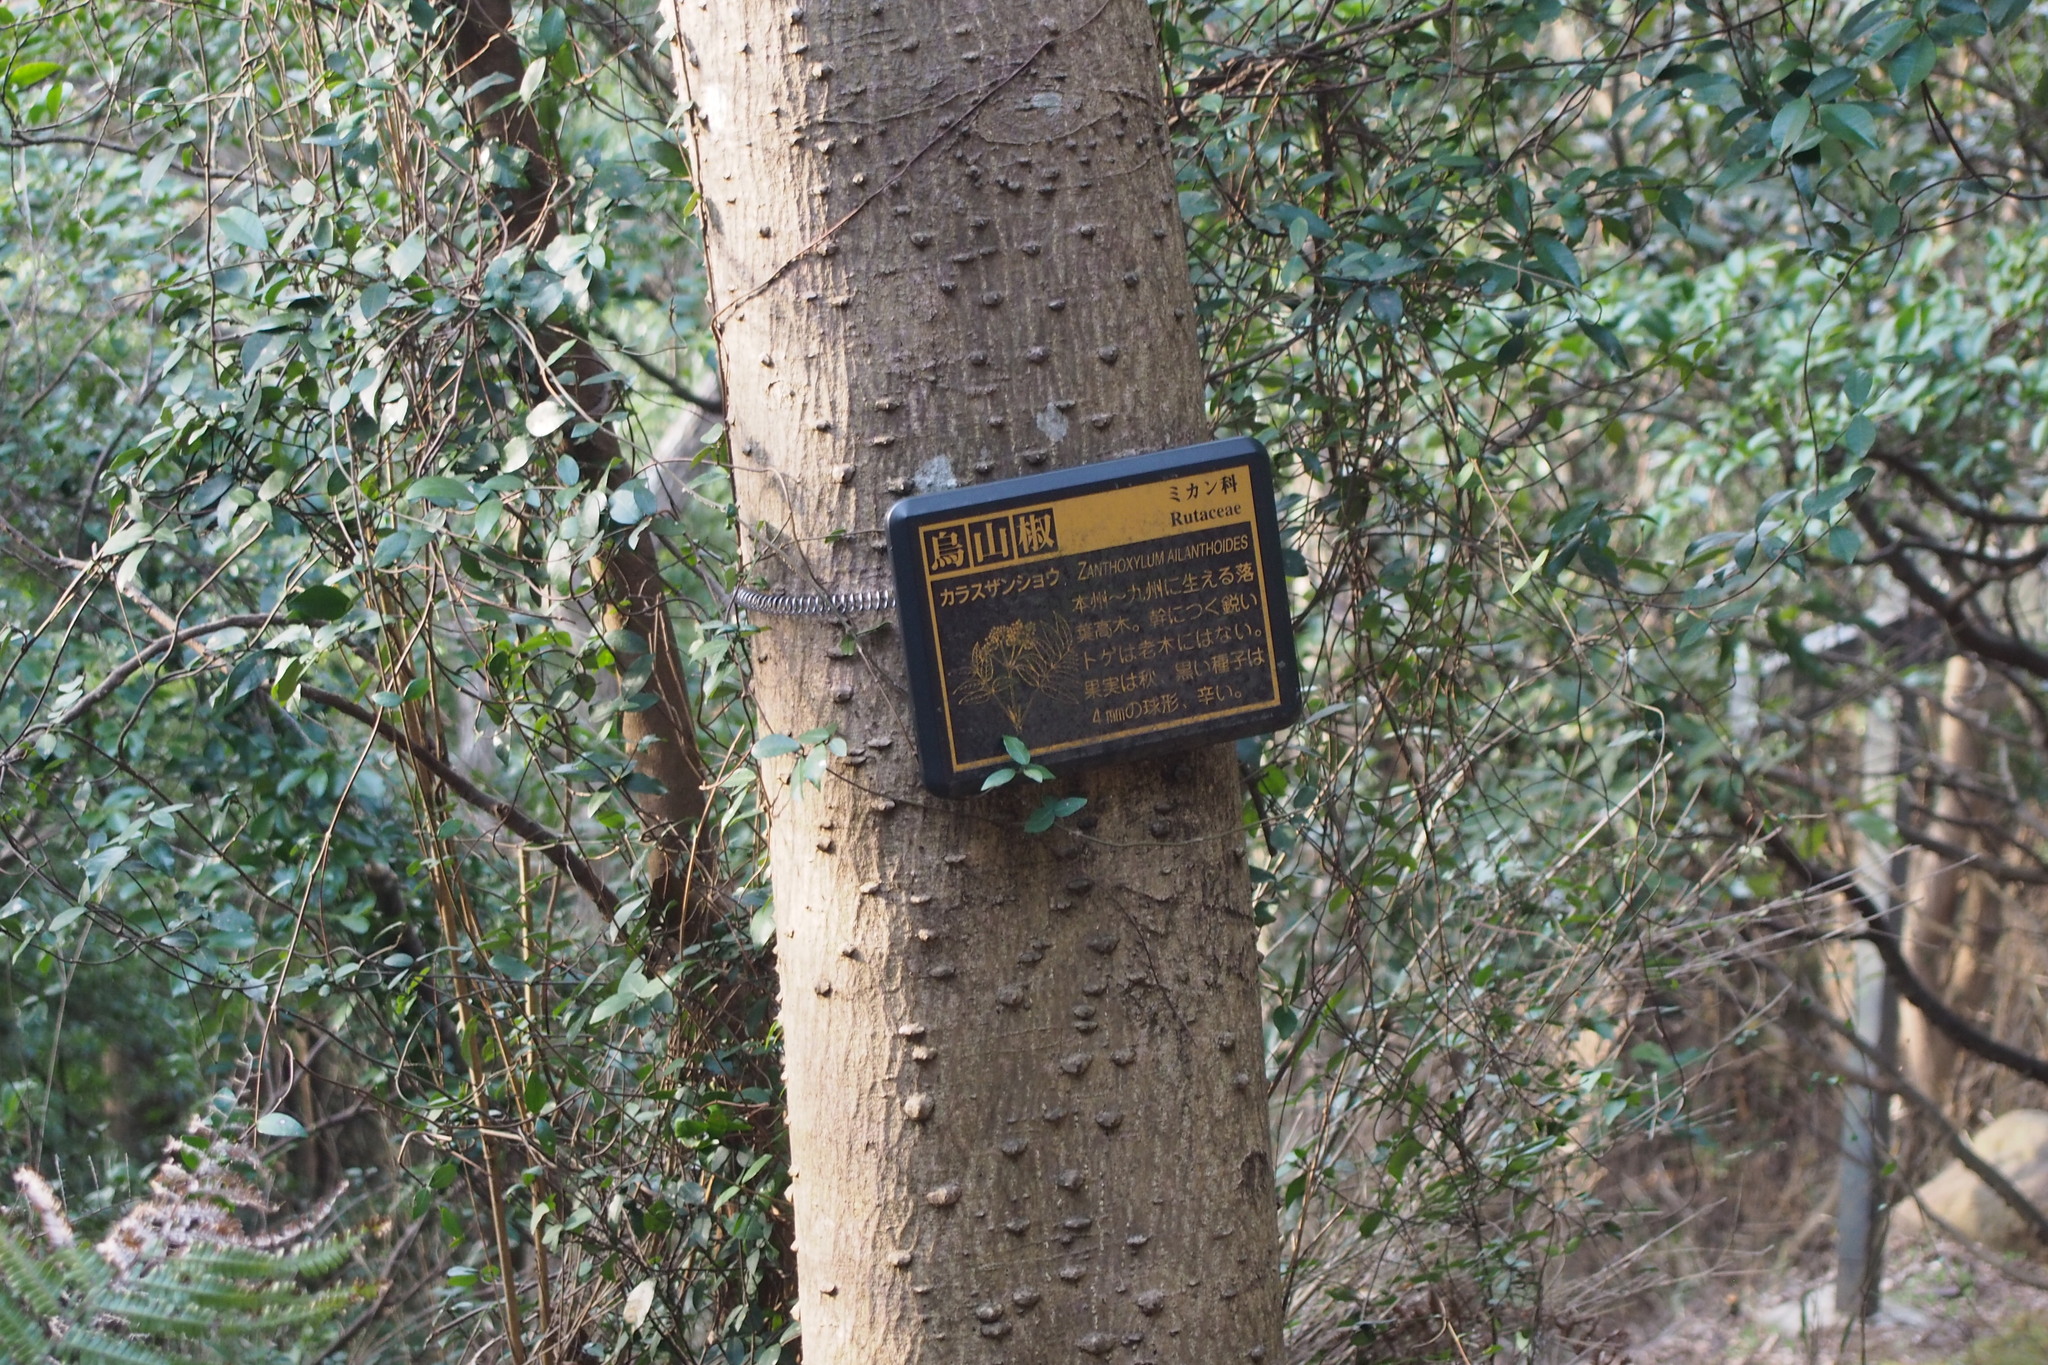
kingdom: Plantae
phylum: Tracheophyta
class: Magnoliopsida
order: Sapindales
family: Rutaceae
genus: Zanthoxylum
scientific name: Zanthoxylum ailanthoides
